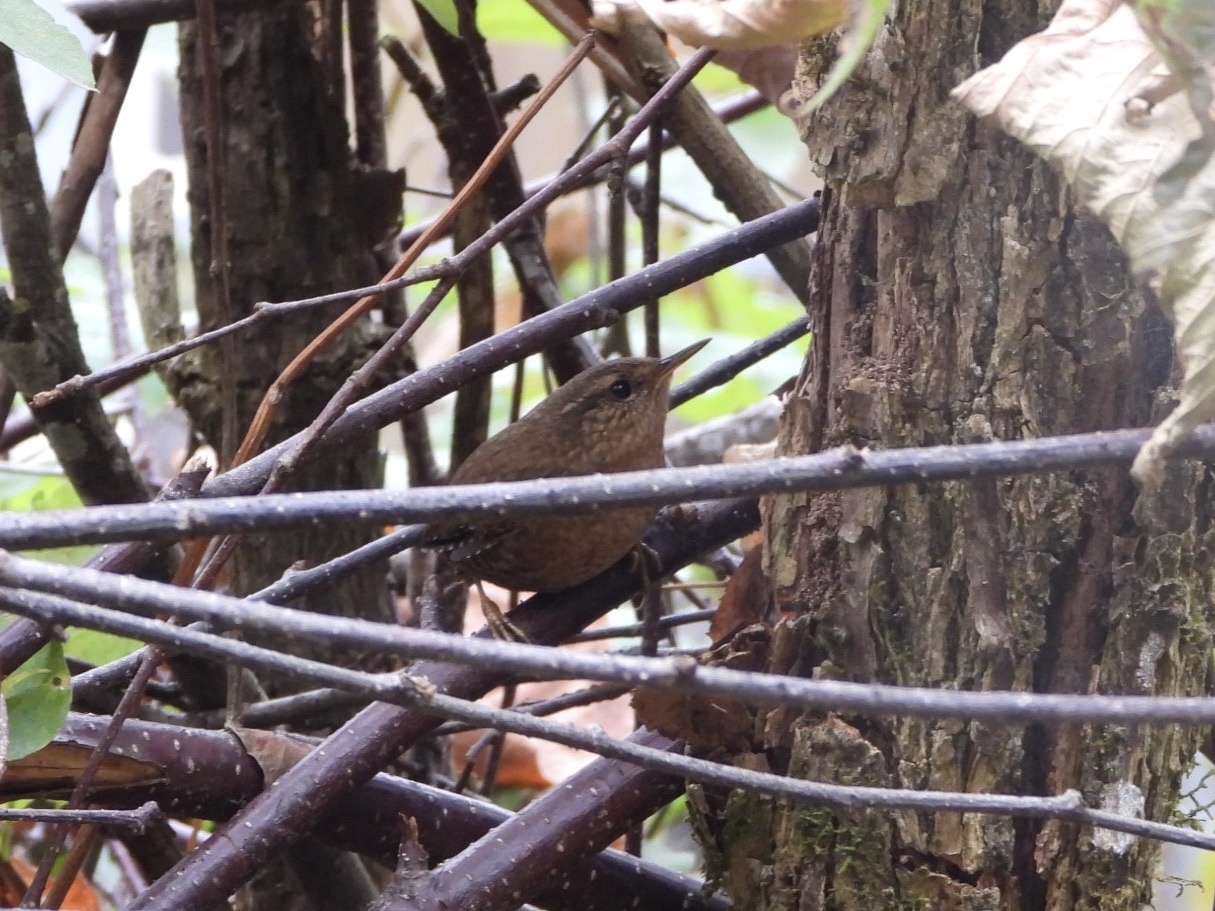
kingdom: Animalia
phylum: Chordata
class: Aves
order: Passeriformes
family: Troglodytidae
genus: Troglodytes
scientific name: Troglodytes pacificus
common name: Pacific wren
